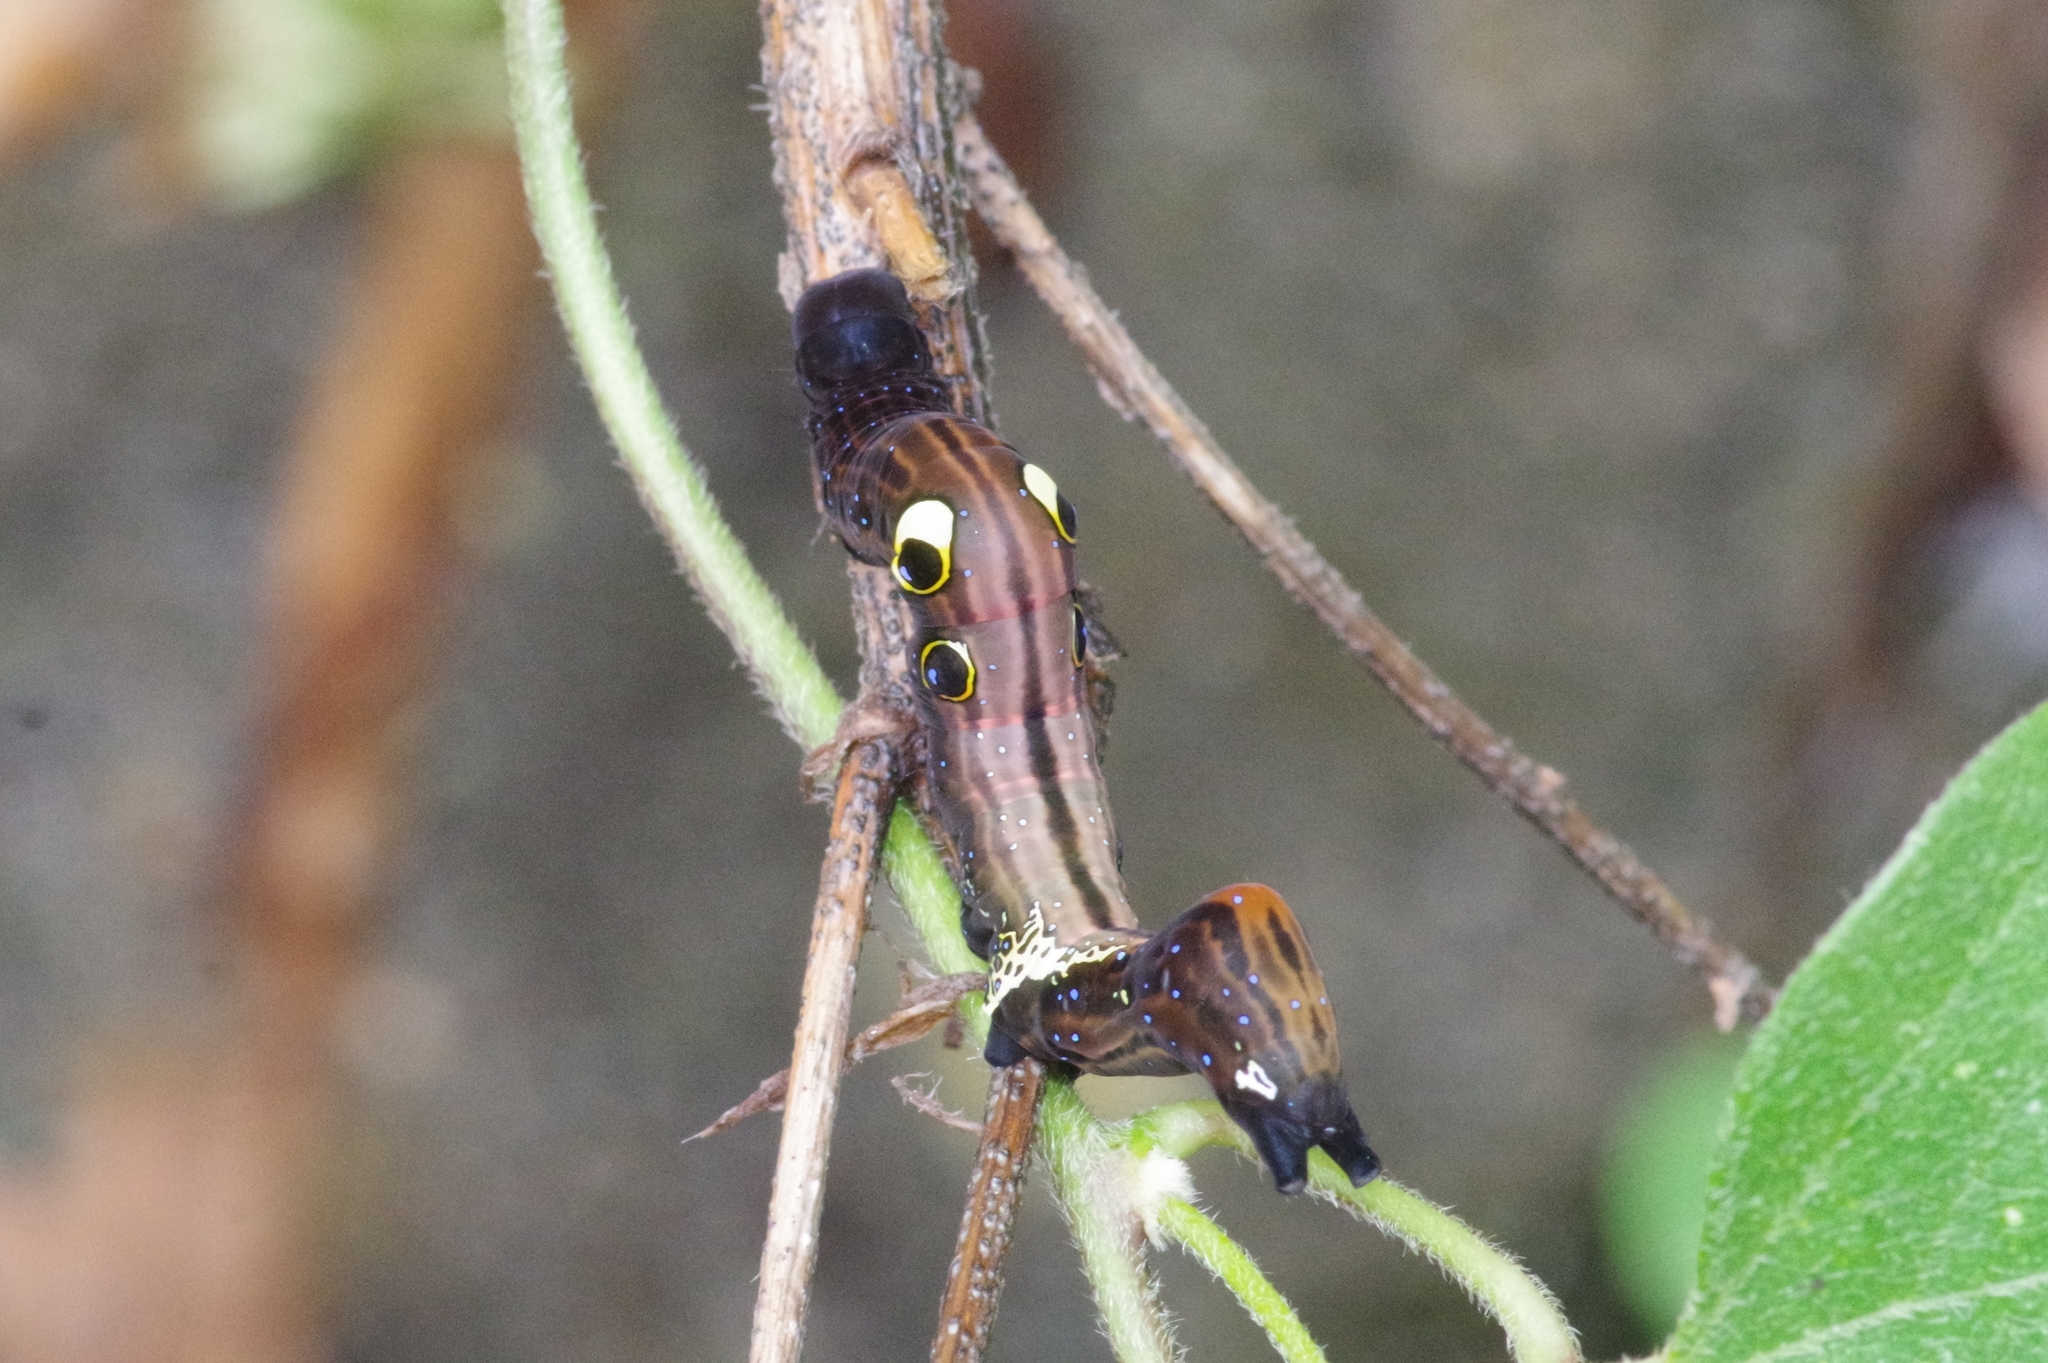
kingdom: Animalia
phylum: Arthropoda
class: Insecta
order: Lepidoptera
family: Erebidae
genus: Eudocima
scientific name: Eudocima tyrannus
